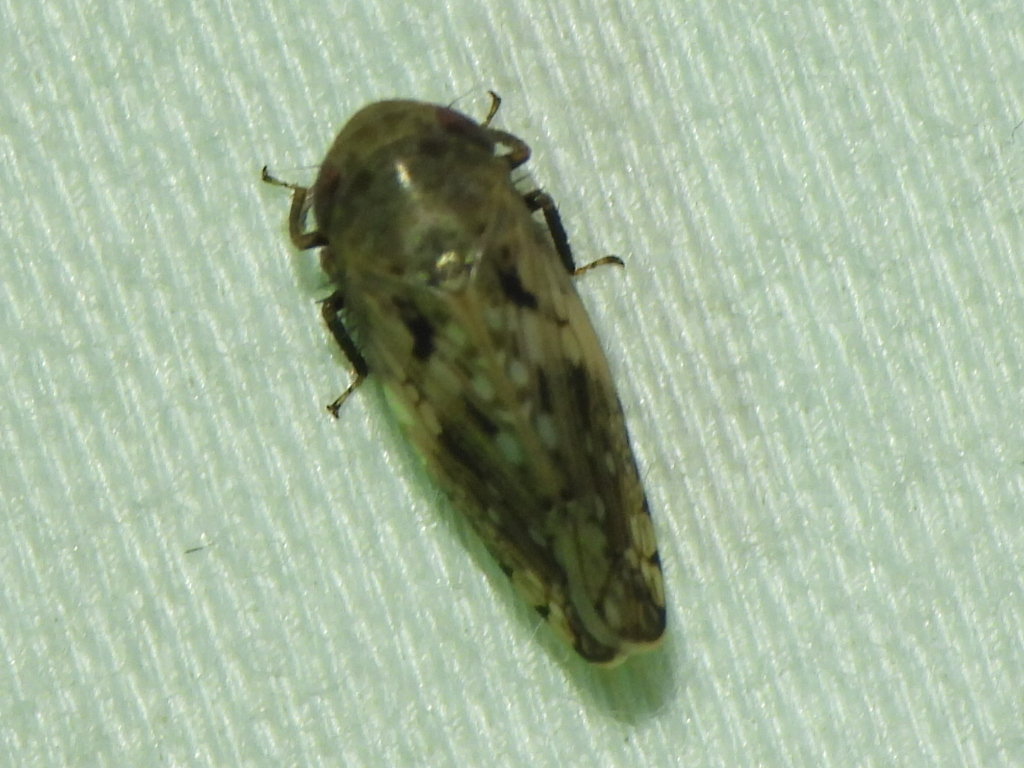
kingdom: Animalia
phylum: Arthropoda
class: Insecta
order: Hemiptera
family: Cicadellidae
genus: Menosoma
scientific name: Menosoma cinctum
